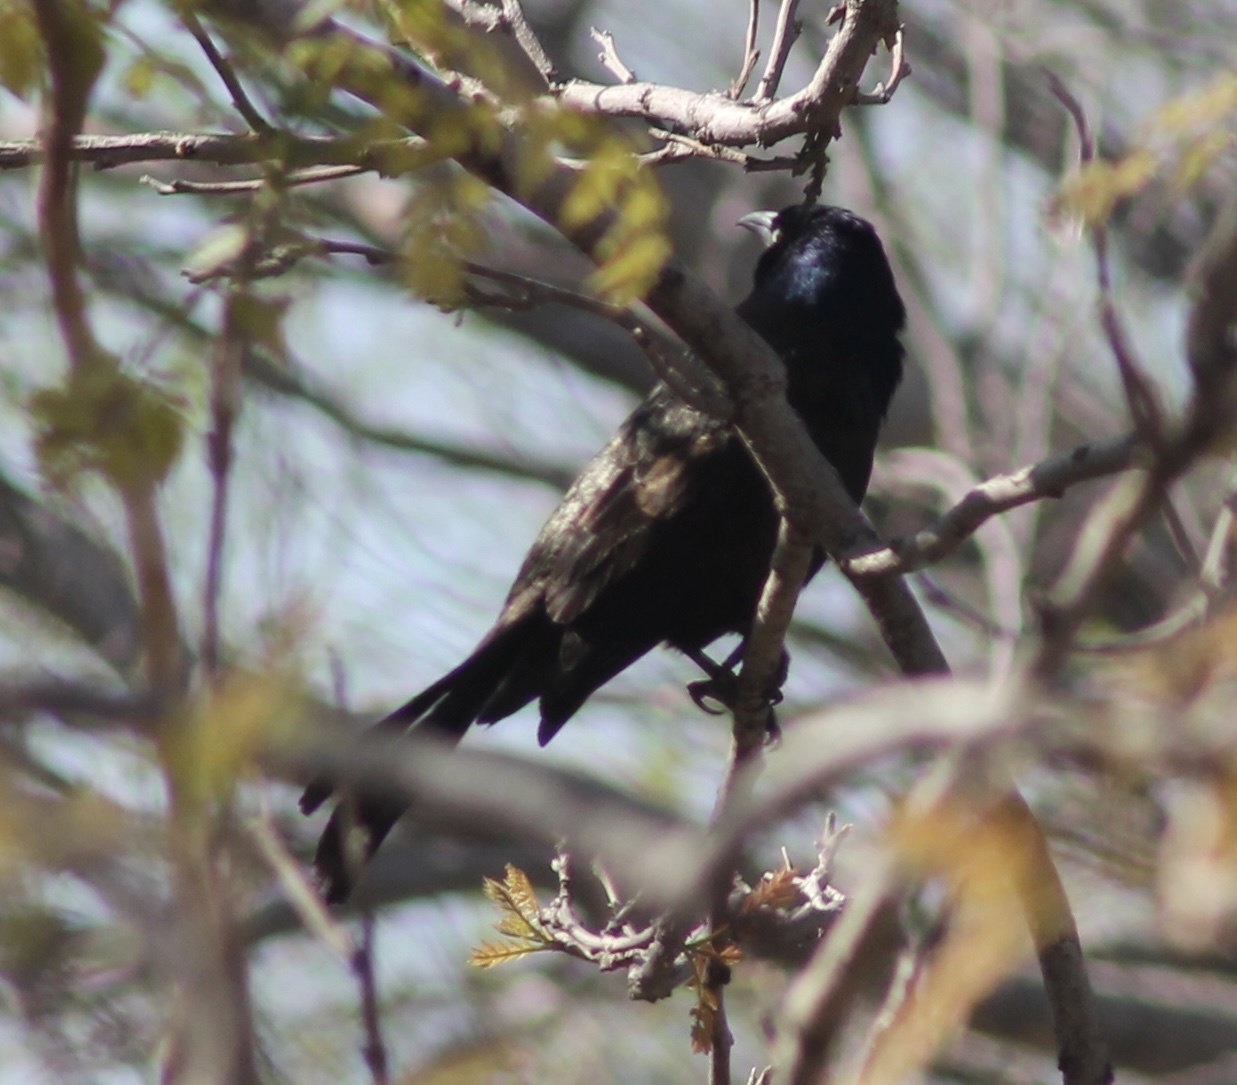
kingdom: Animalia
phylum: Chordata
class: Aves
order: Passeriformes
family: Icteridae
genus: Quiscalus
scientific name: Quiscalus quiscula
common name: Common grackle
